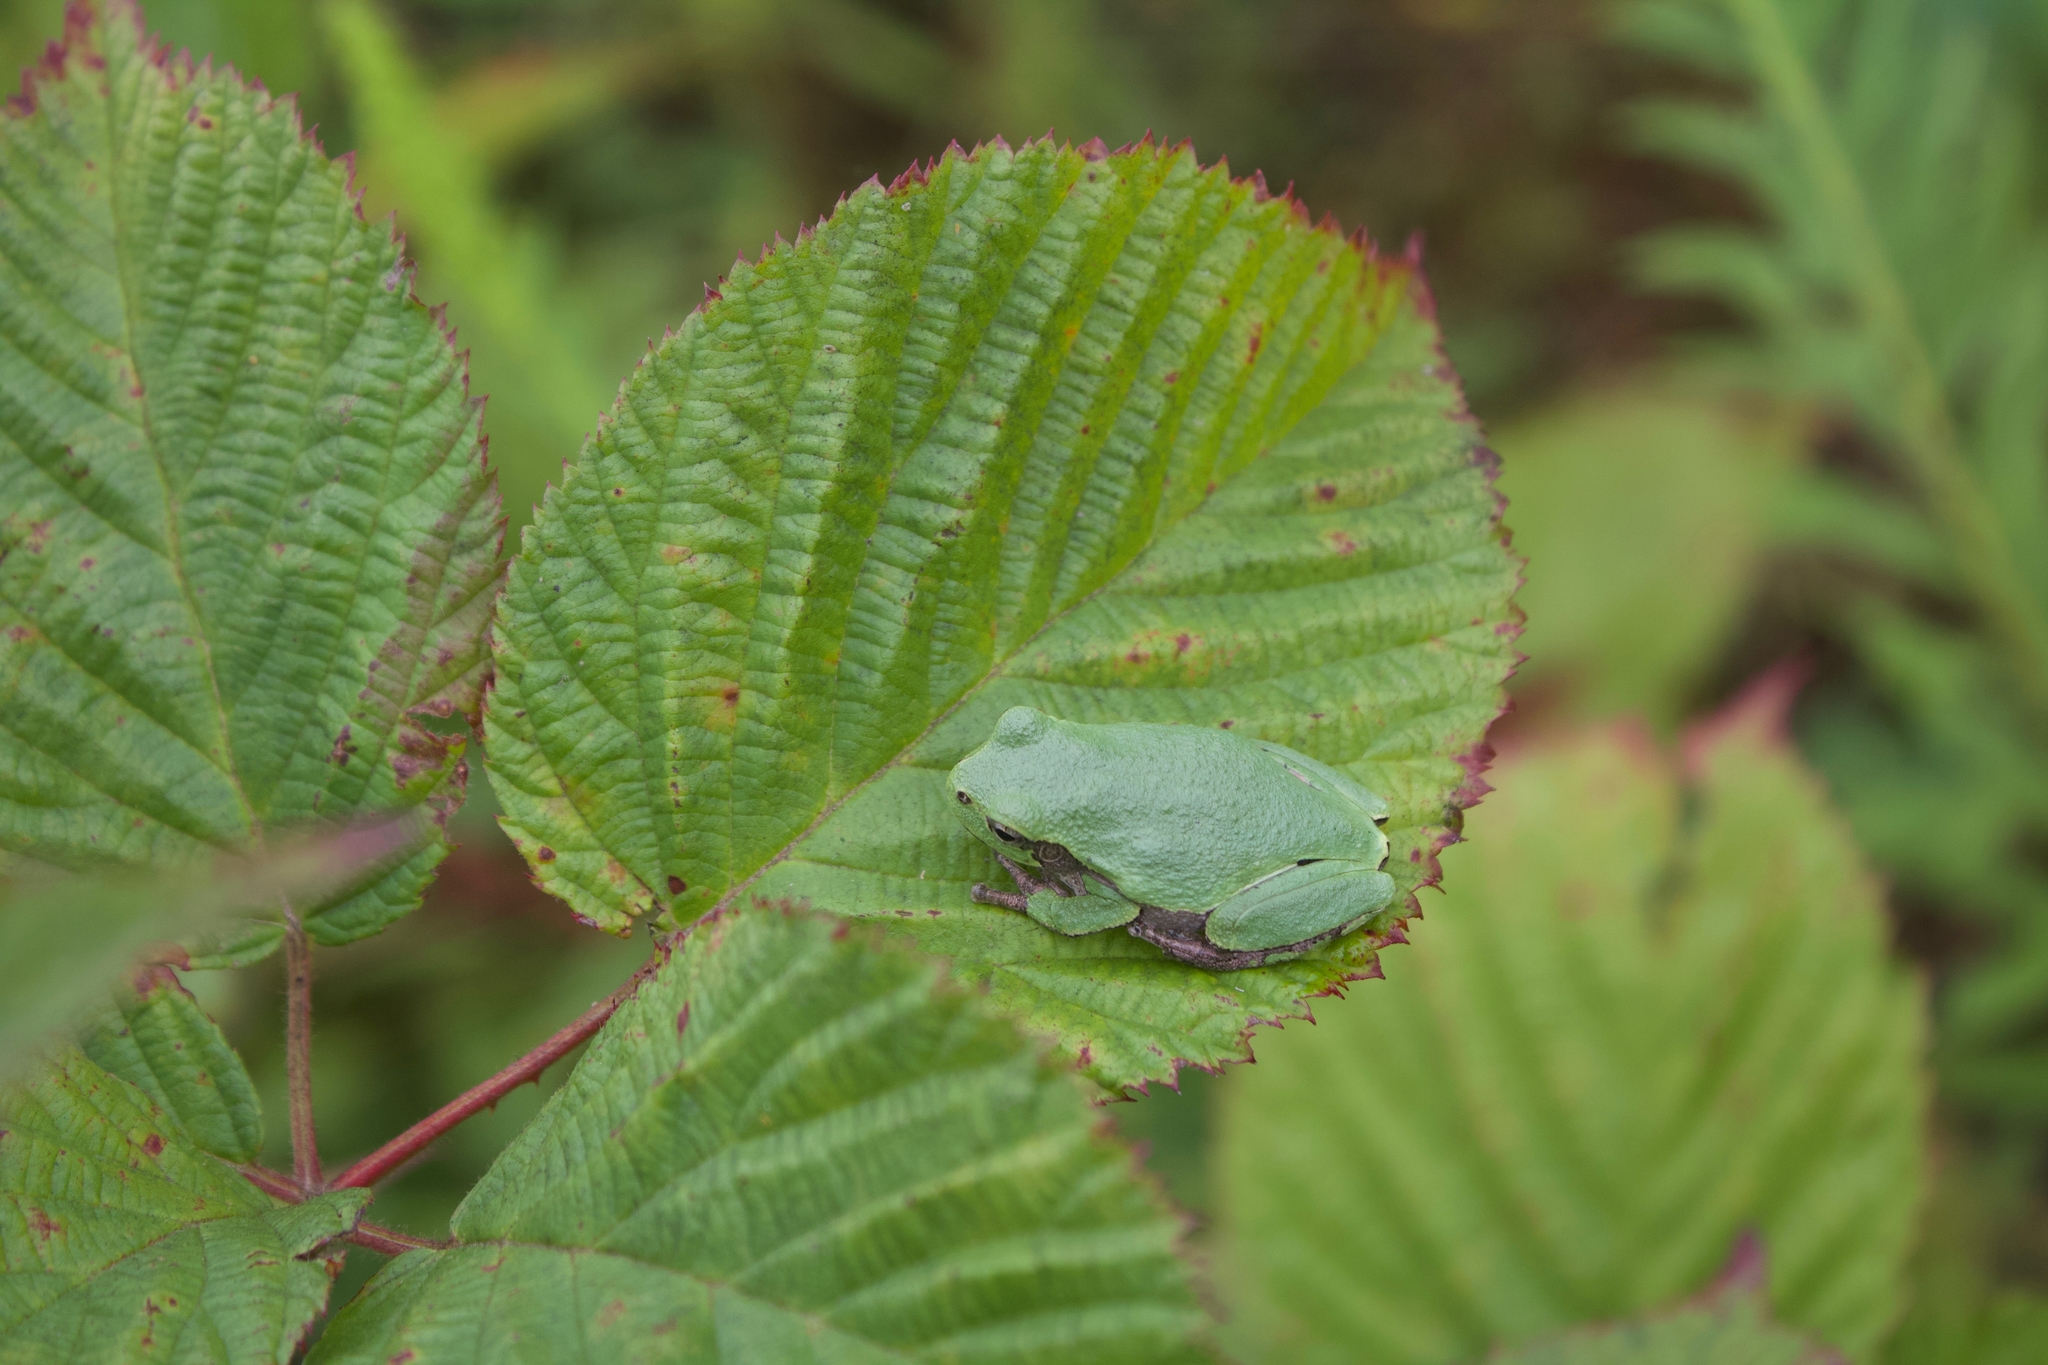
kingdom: Animalia
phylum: Chordata
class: Amphibia
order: Anura
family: Hylidae
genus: Hyla
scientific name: Hyla
